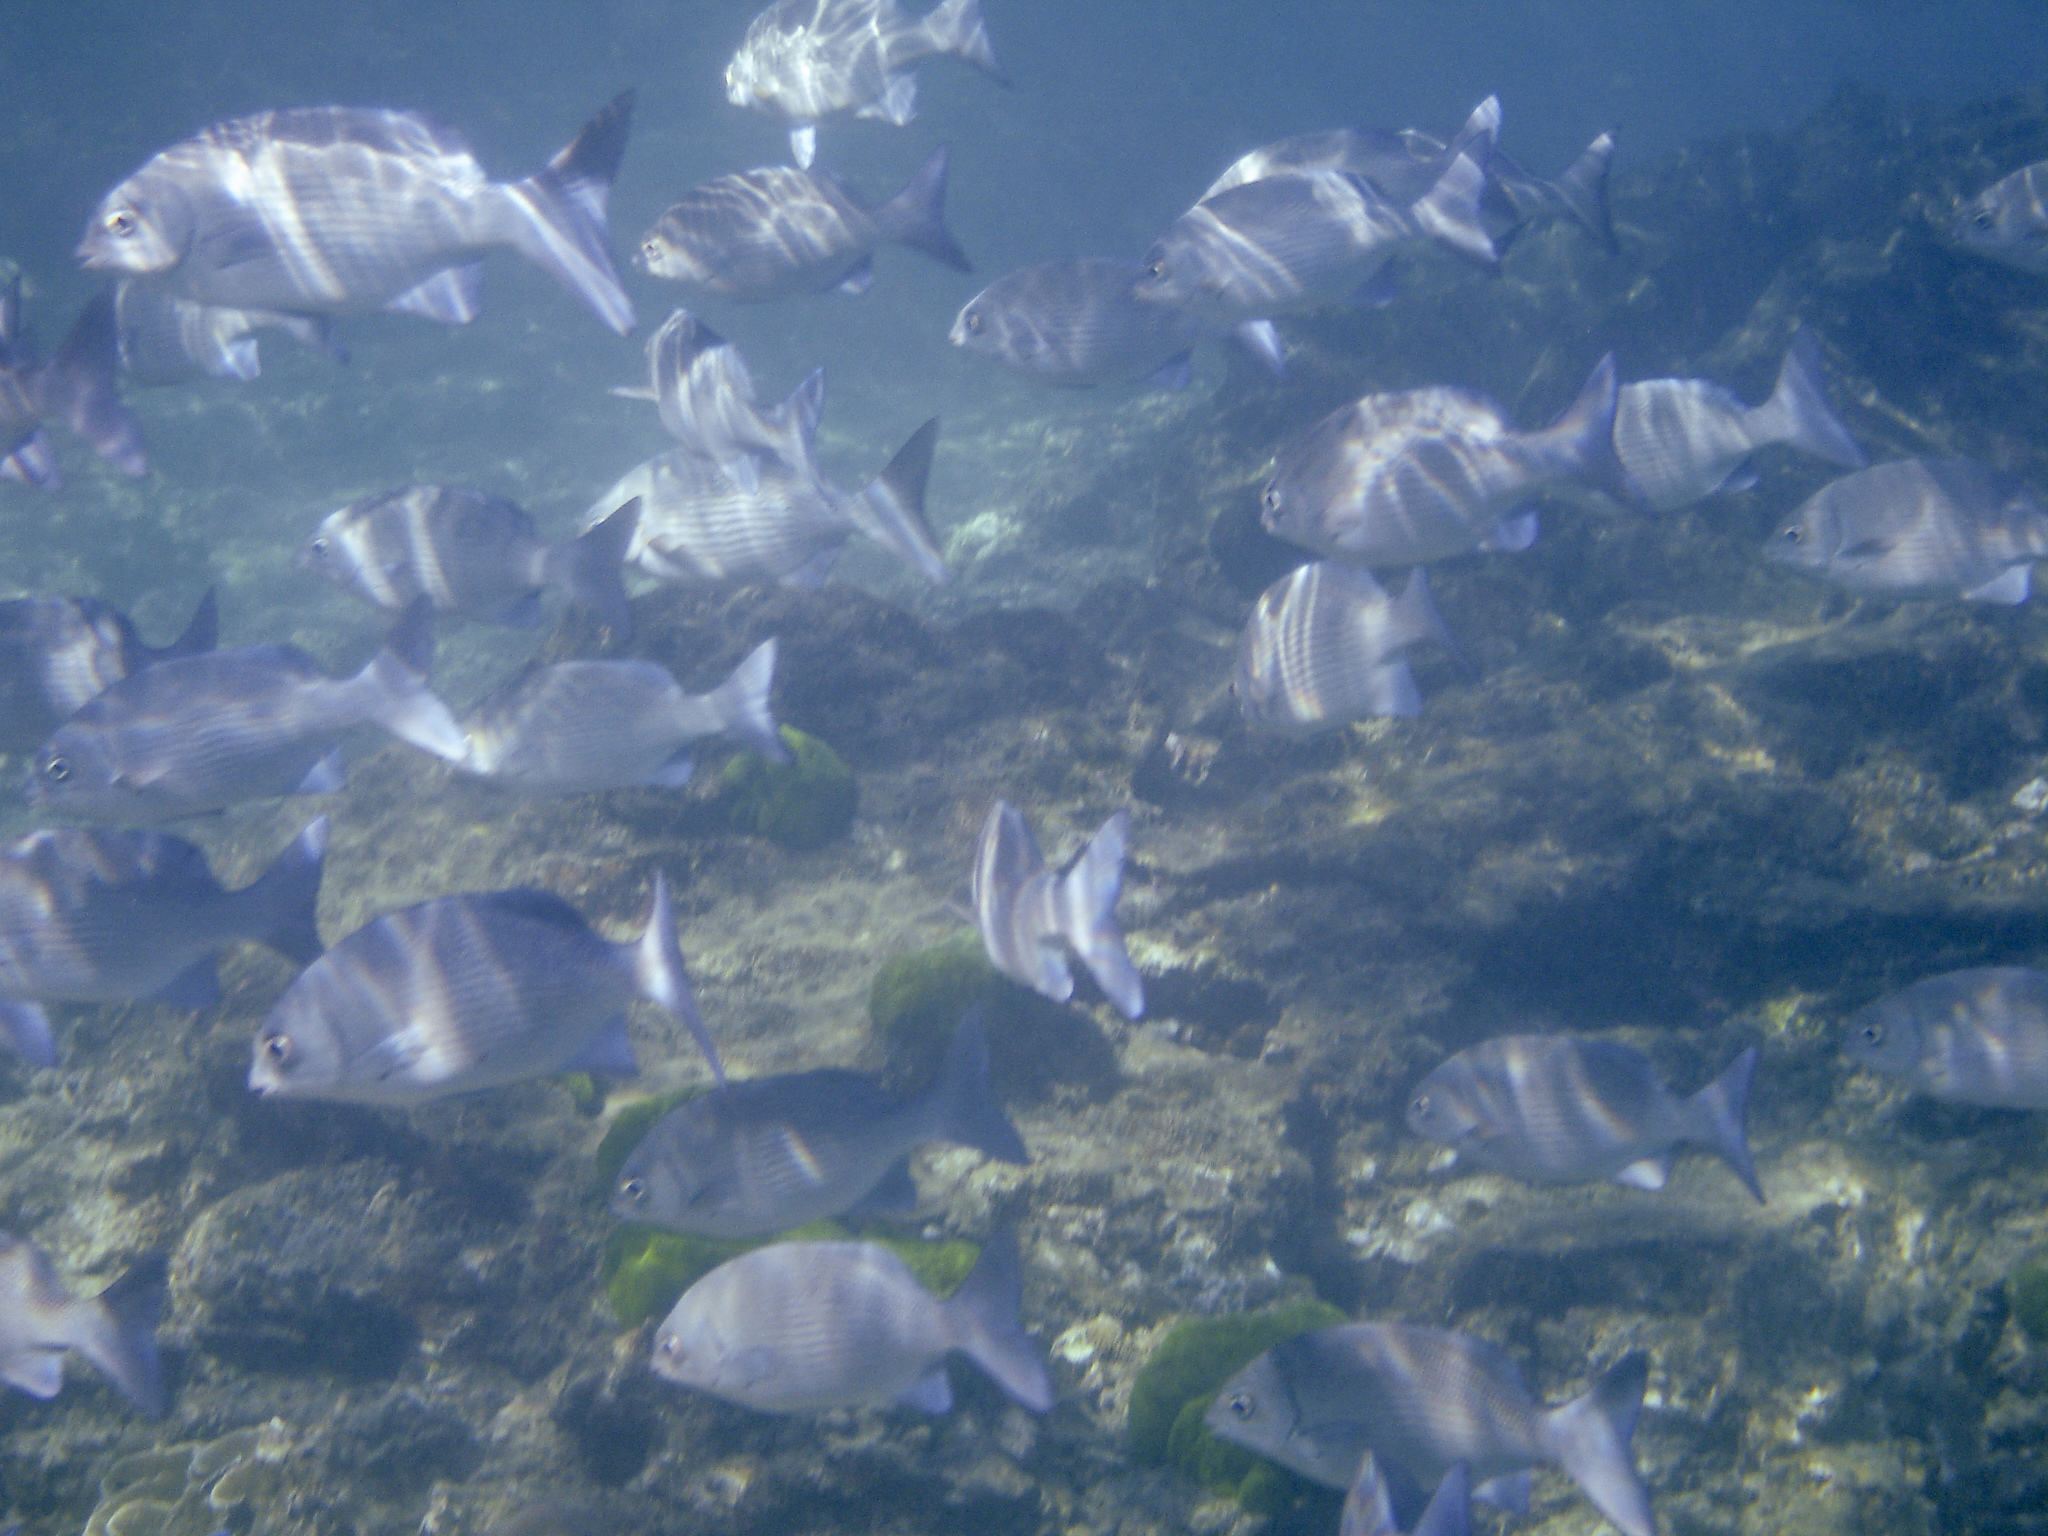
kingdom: Animalia
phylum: Chordata
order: Perciformes
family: Kyphosidae
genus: Kyphosus
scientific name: Kyphosus cinerascens
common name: Topsail drummer
